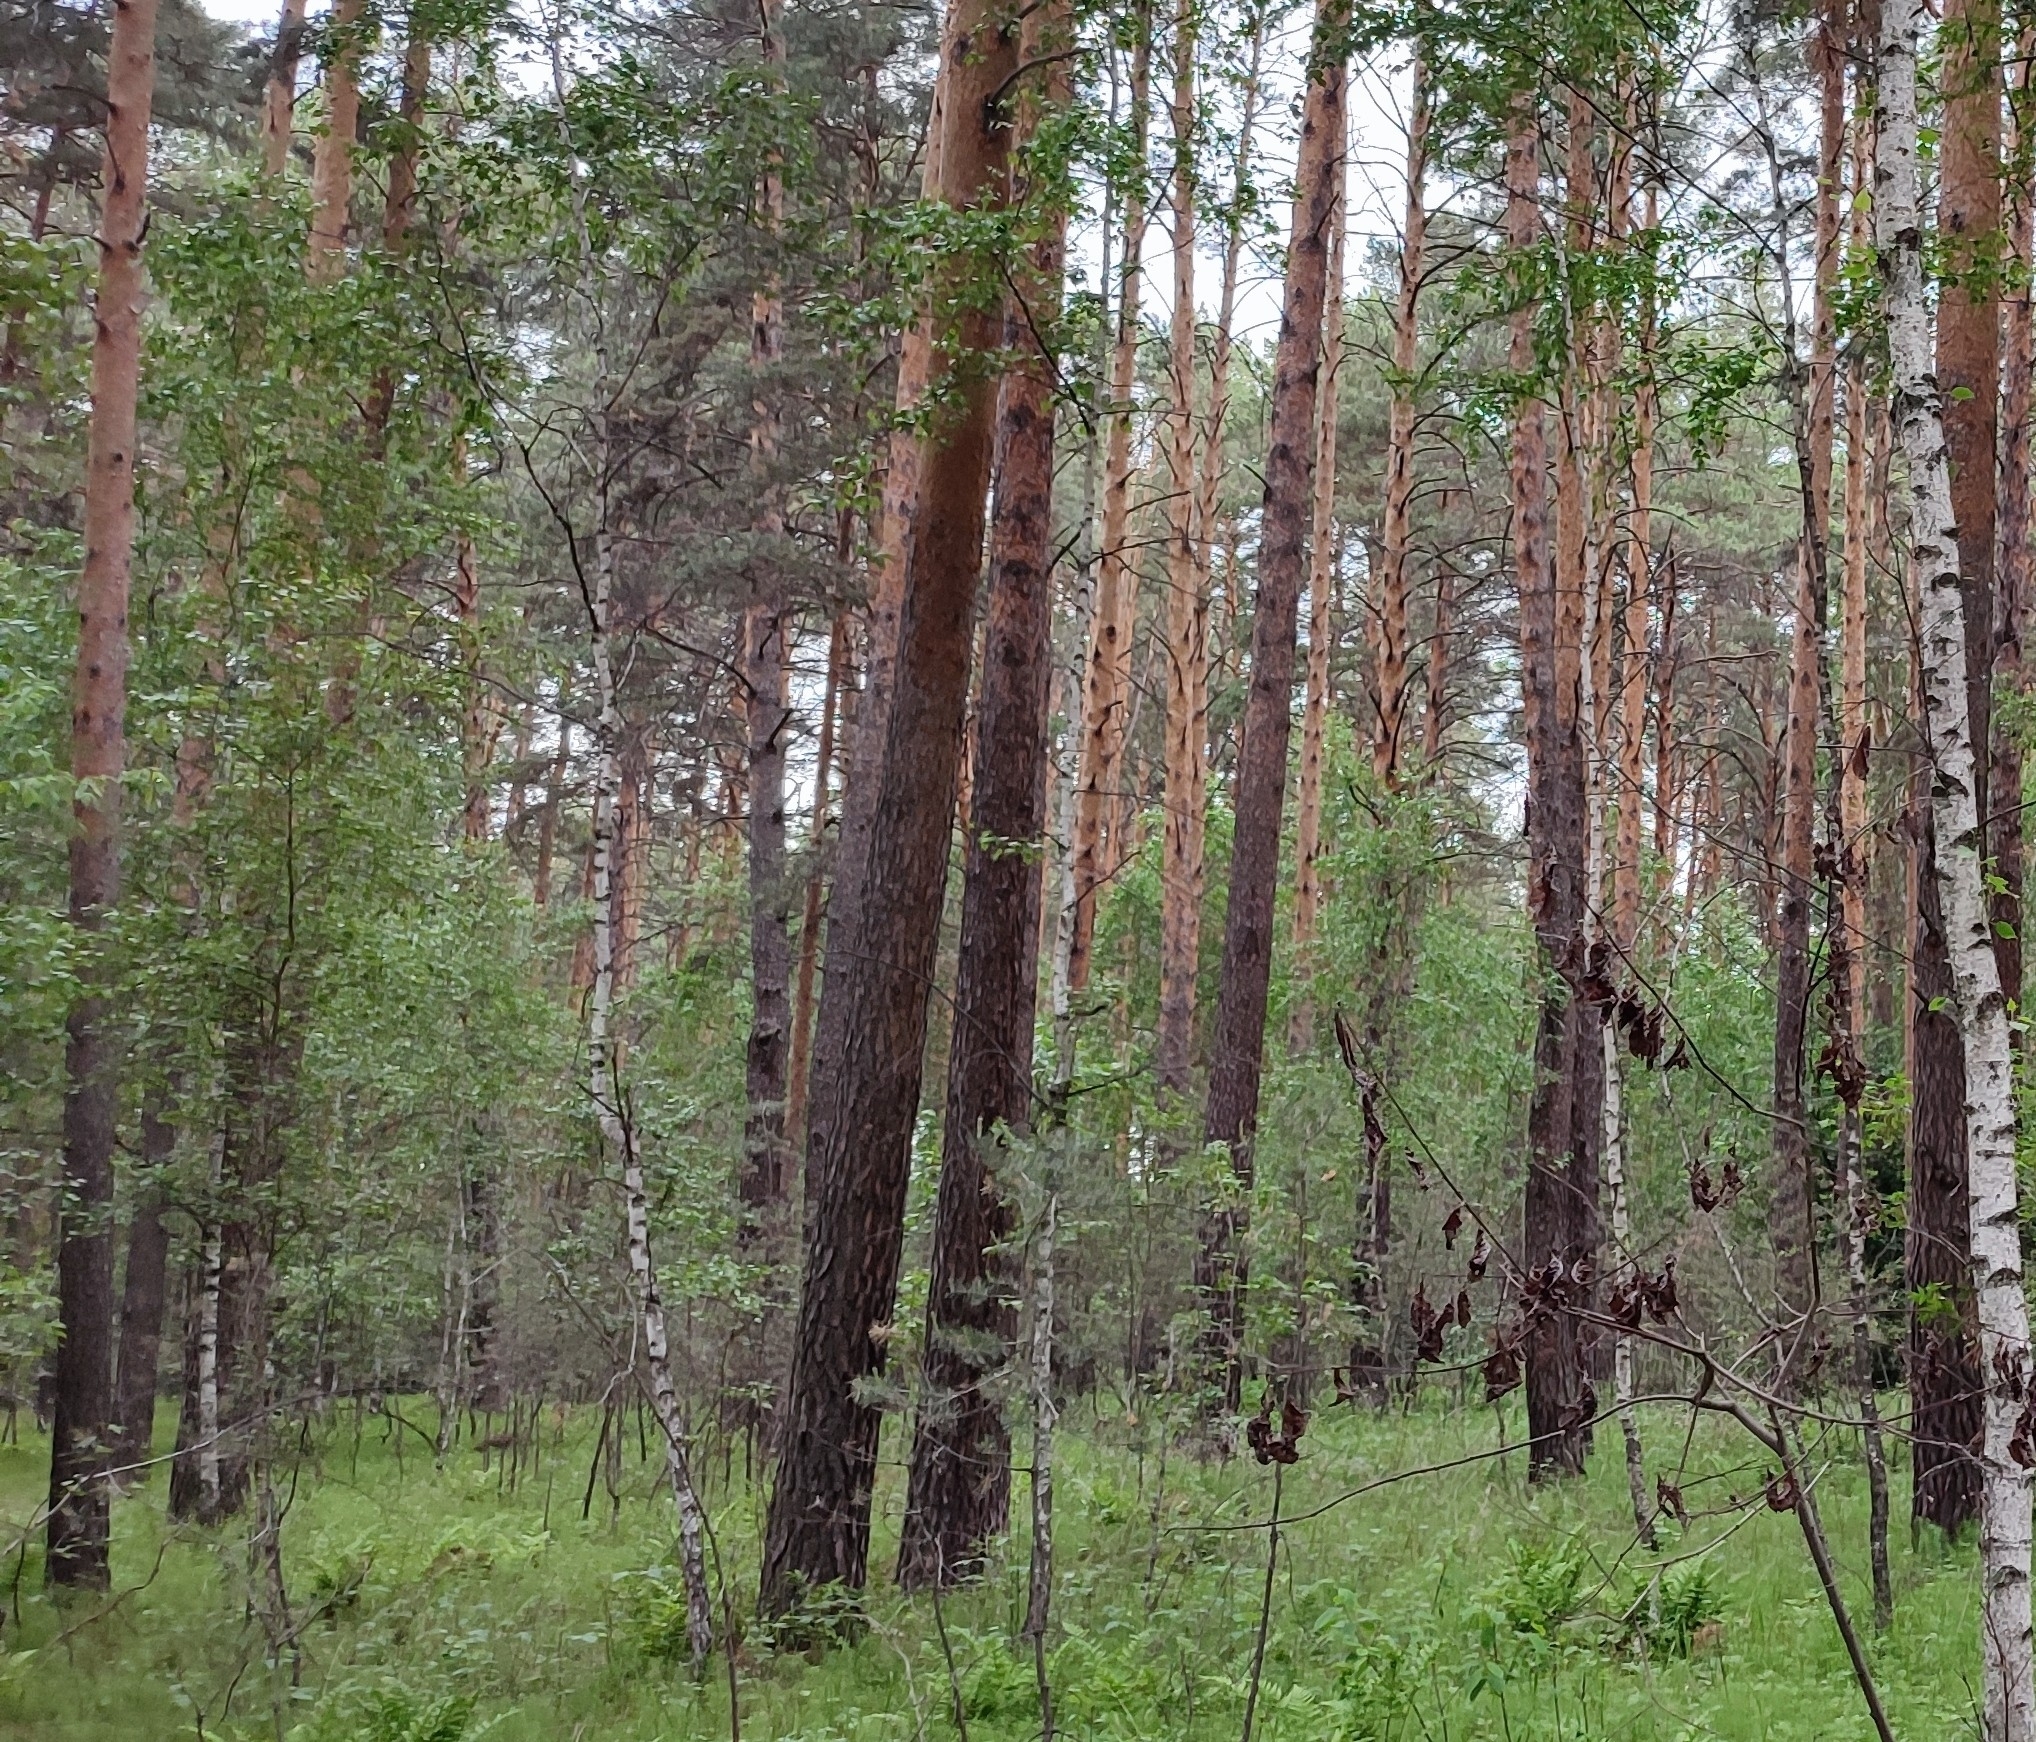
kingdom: Plantae
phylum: Tracheophyta
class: Pinopsida
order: Pinales
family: Pinaceae
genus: Pinus
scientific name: Pinus sylvestris
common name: Scots pine
